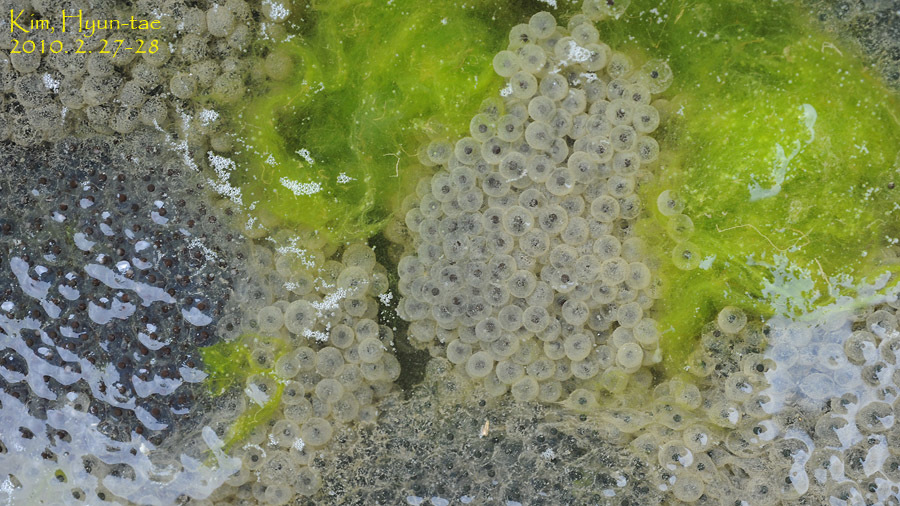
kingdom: Animalia
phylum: Chordata
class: Amphibia
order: Anura
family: Ranidae
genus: Rana
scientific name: Rana uenoi
